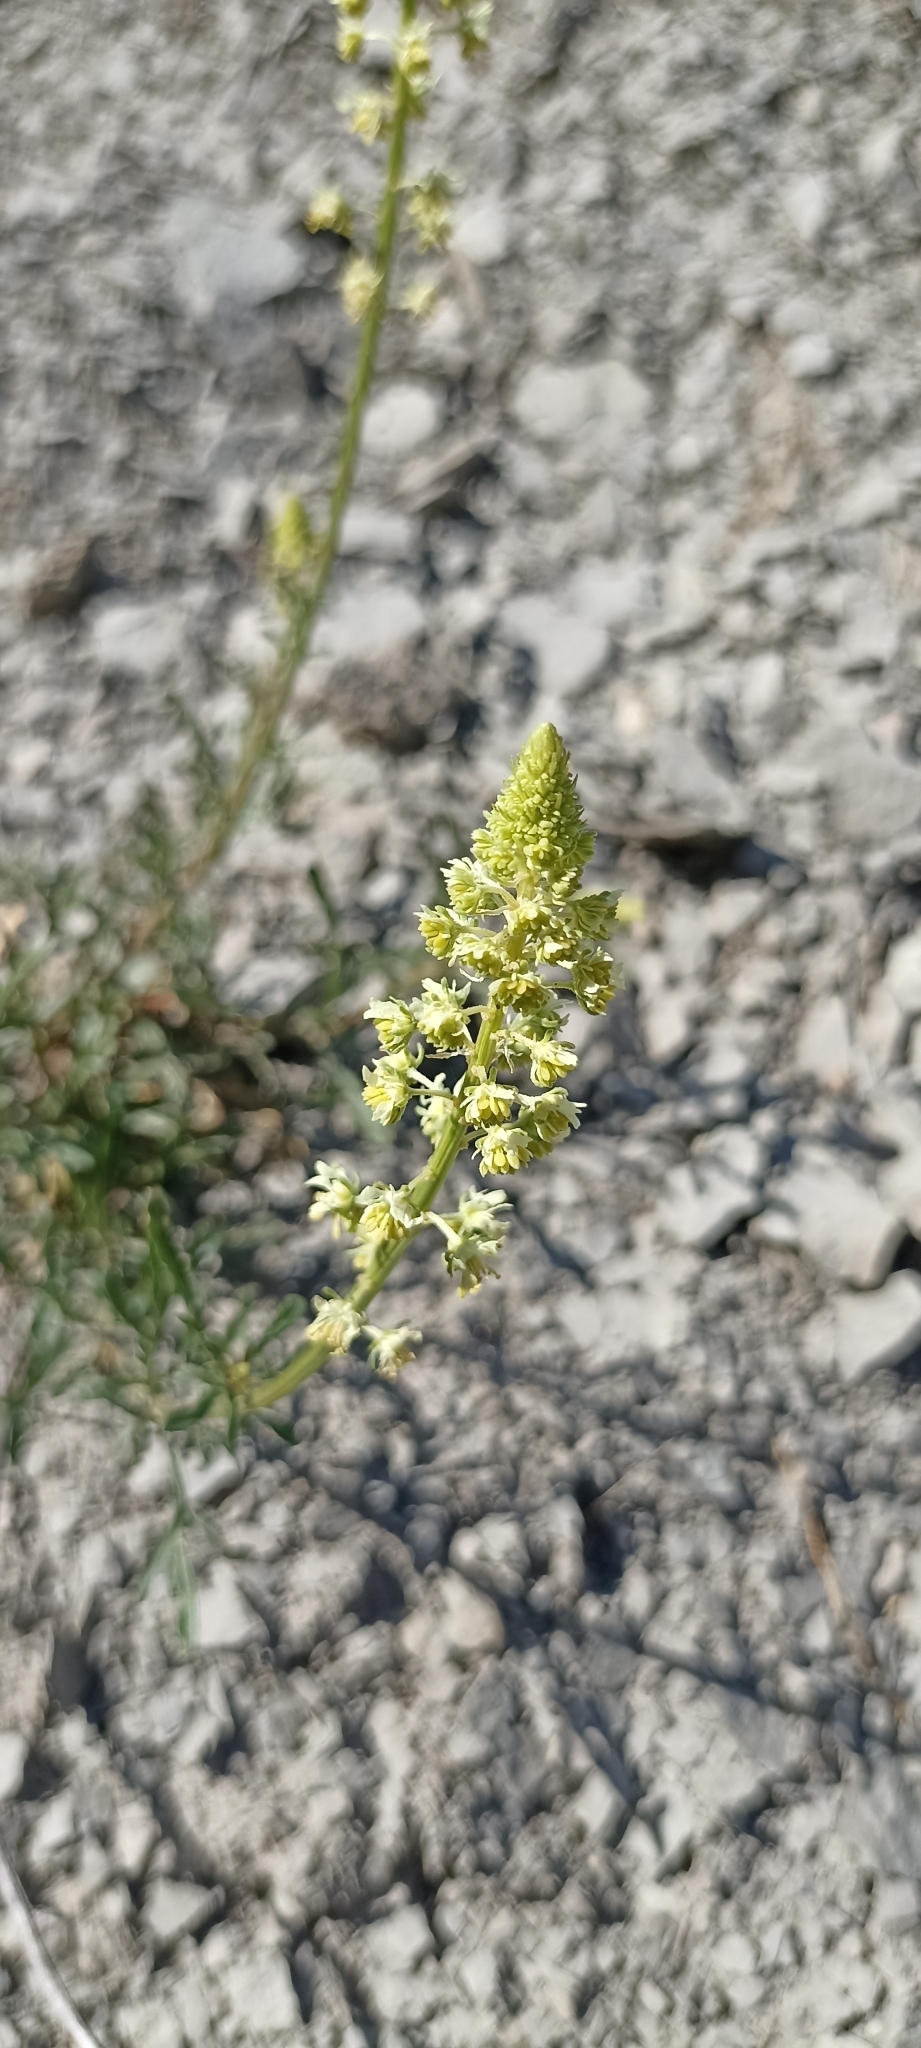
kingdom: Plantae
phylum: Tracheophyta
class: Magnoliopsida
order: Brassicales
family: Resedaceae
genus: Reseda
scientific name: Reseda lutea
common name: Wild mignonette
